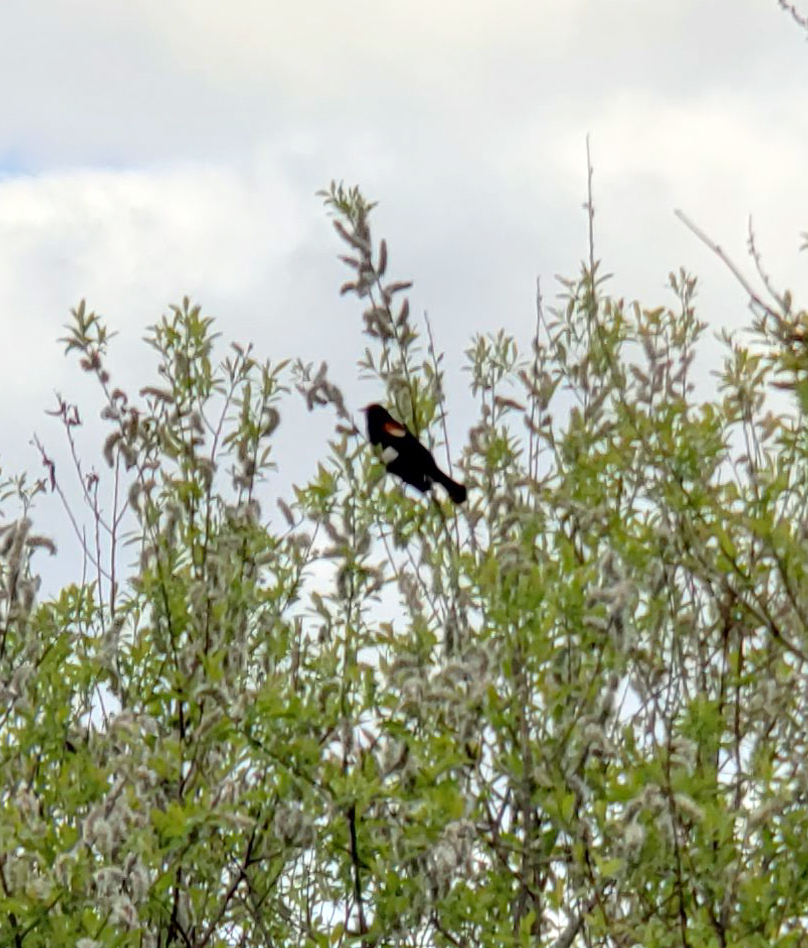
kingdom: Animalia
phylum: Chordata
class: Aves
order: Passeriformes
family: Icteridae
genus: Agelaius
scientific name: Agelaius phoeniceus
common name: Red-winged blackbird
